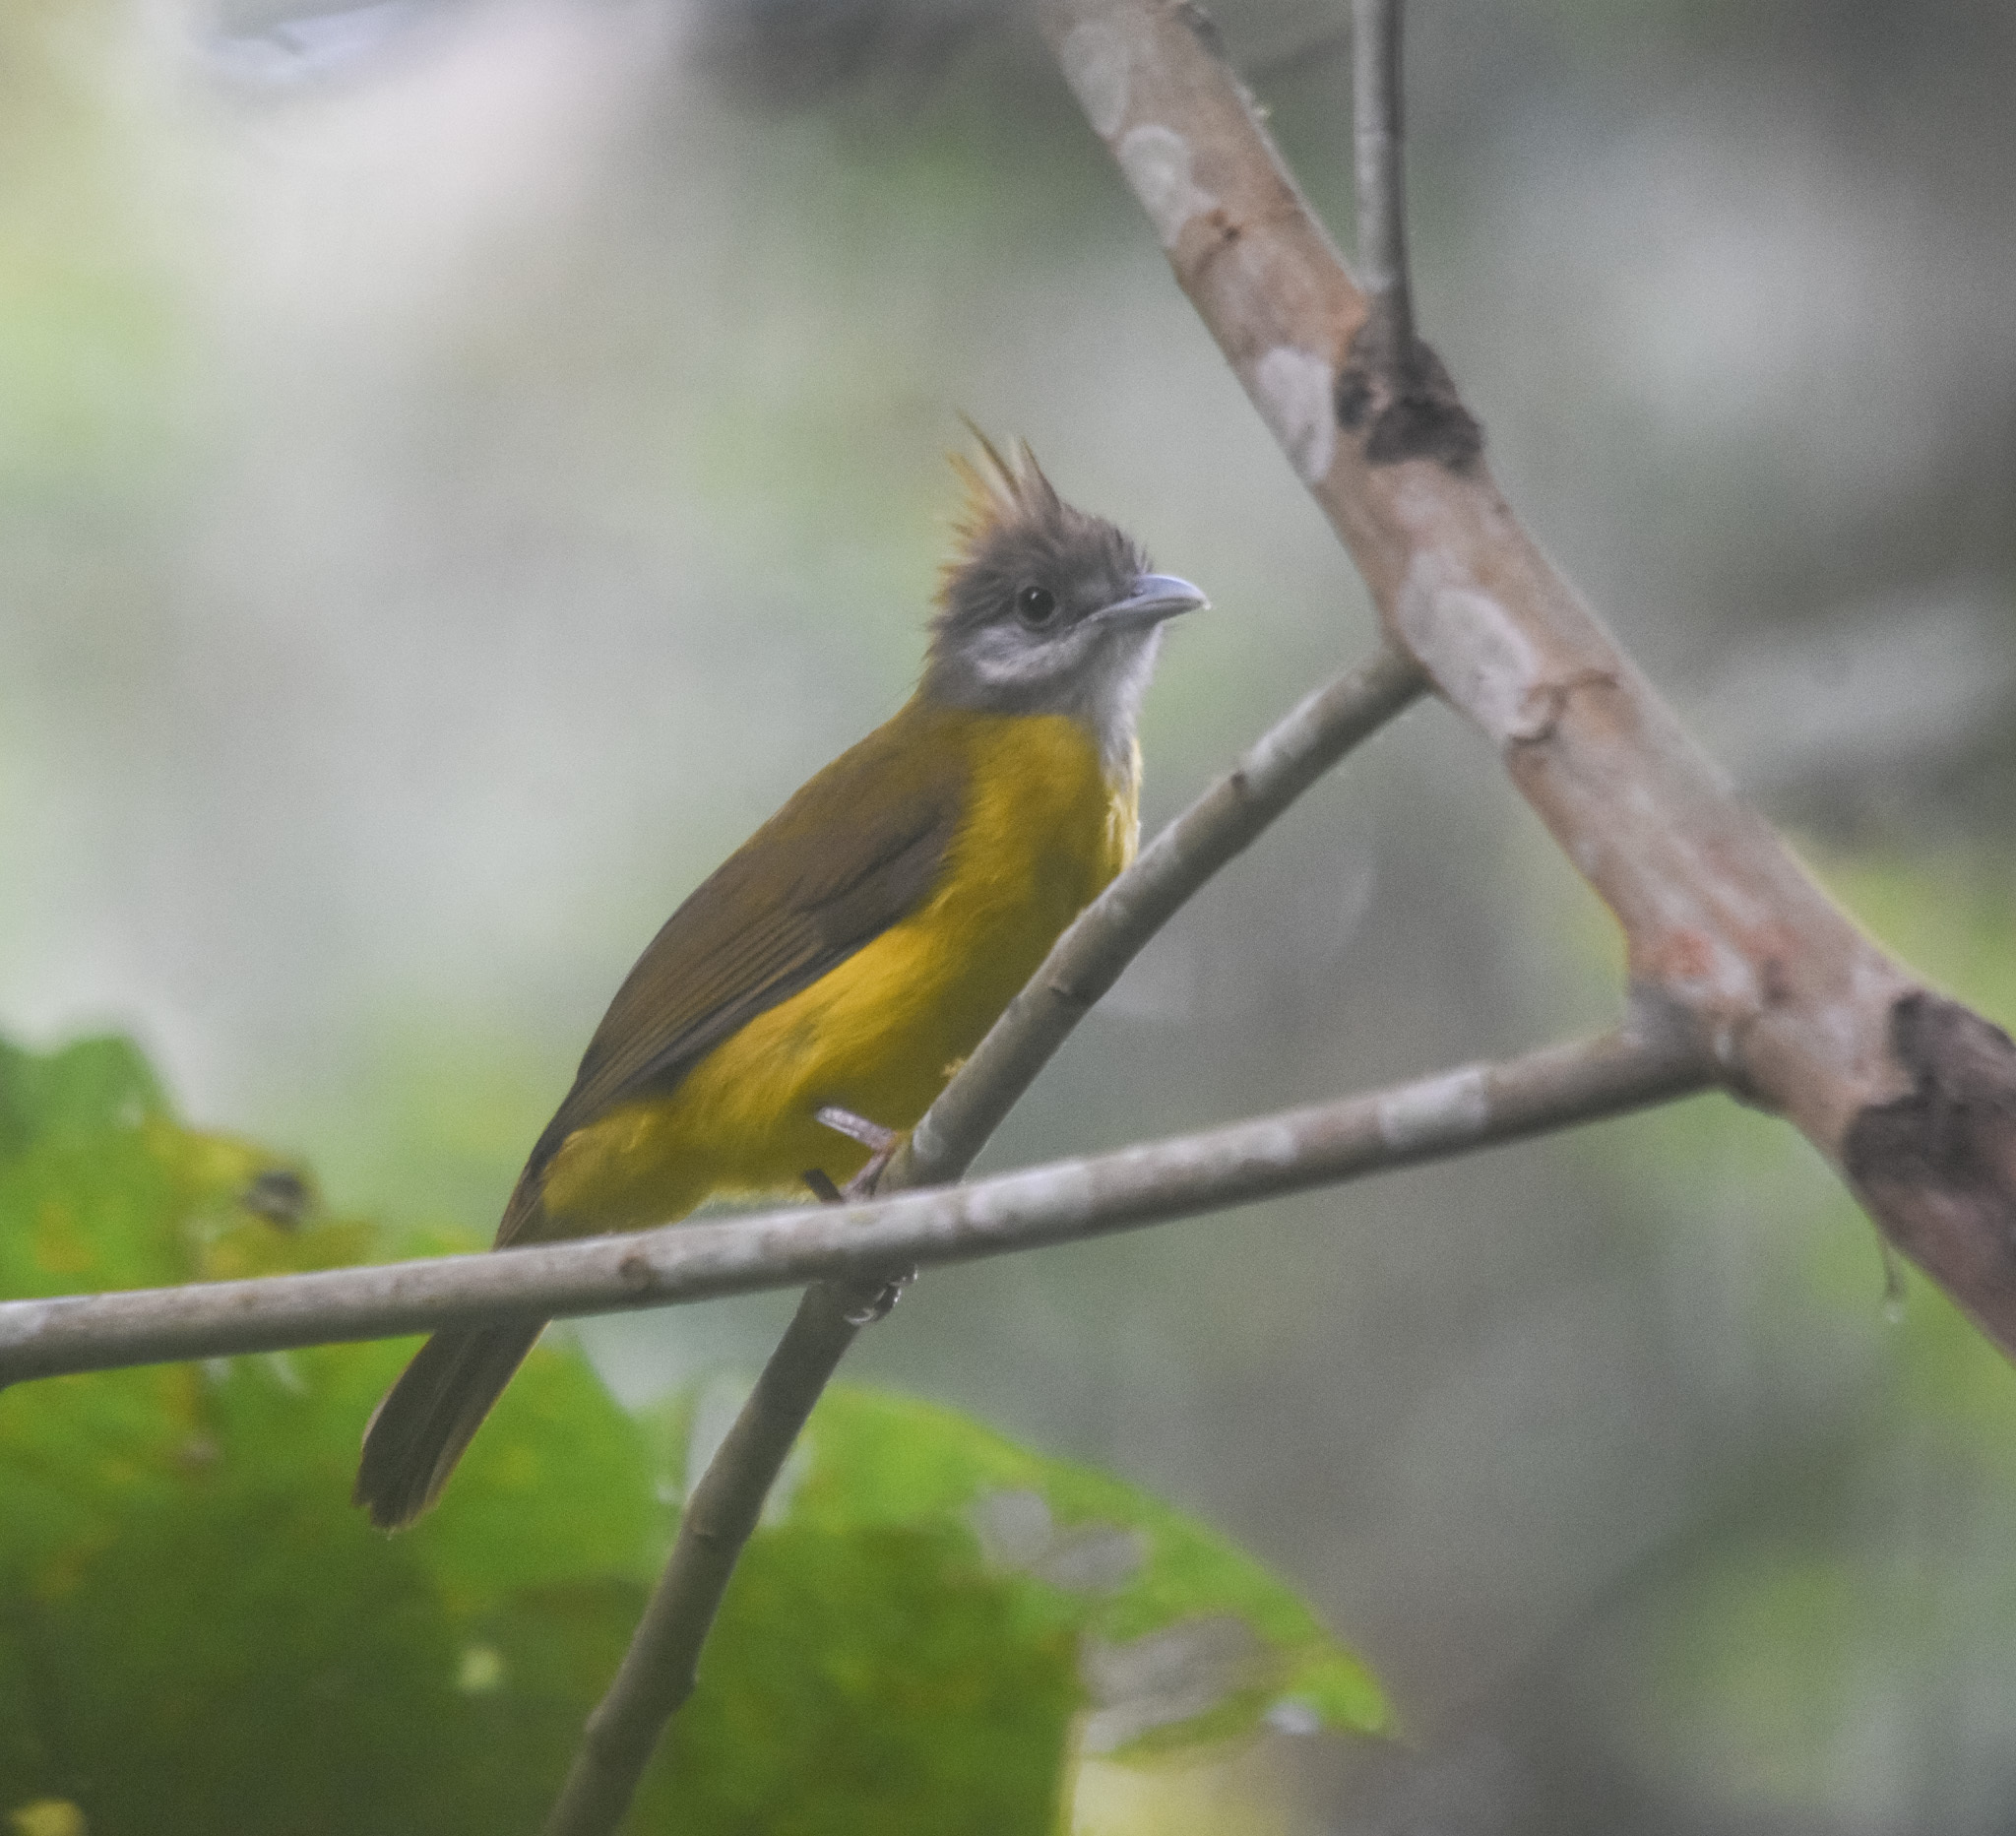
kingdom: Animalia
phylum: Chordata
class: Aves
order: Passeriformes
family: Pycnonotidae
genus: Alophoixus
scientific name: Alophoixus flaveolus
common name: White-throated bulbul
